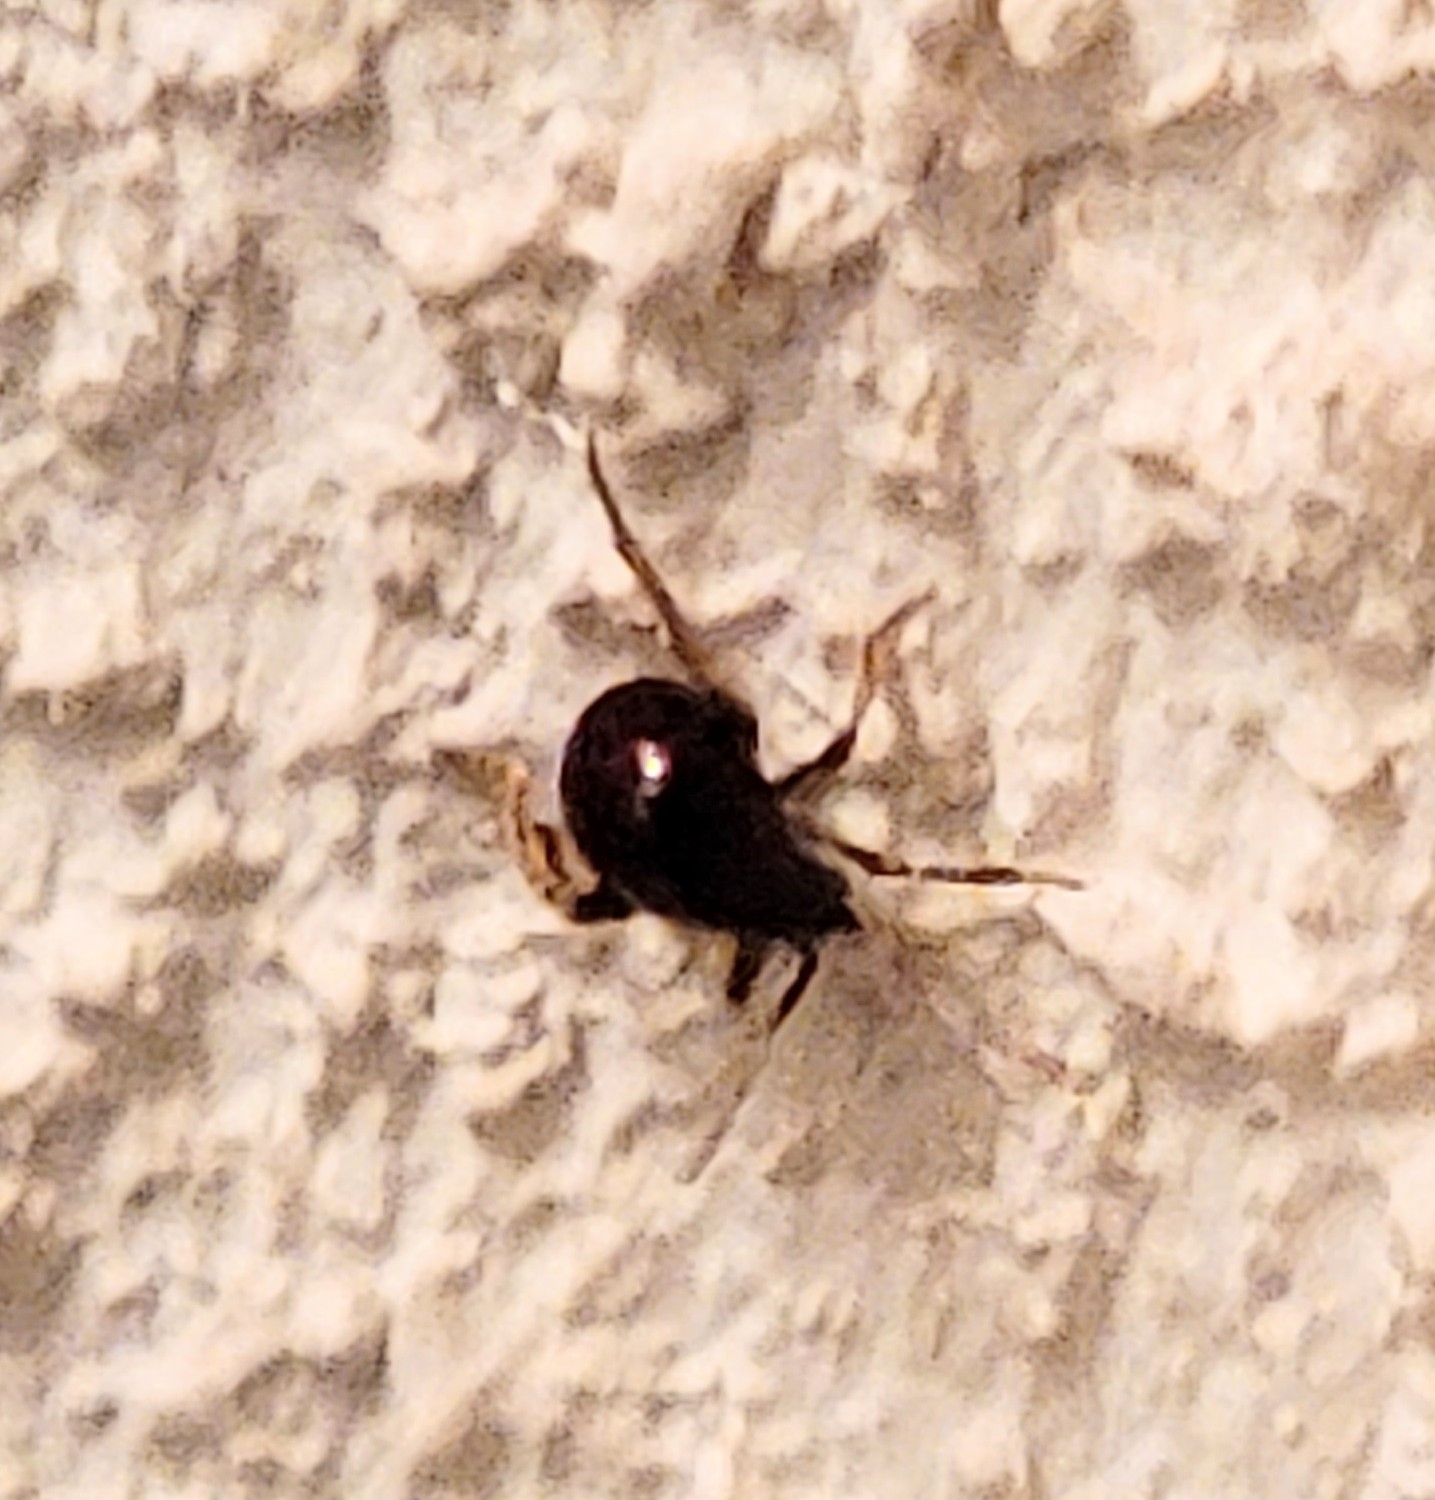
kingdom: Animalia
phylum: Arthropoda
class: Insecta
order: Coleoptera
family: Ptinidae
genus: Gibbium
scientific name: Gibbium aequinoctiale
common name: Smooth spider beetle
